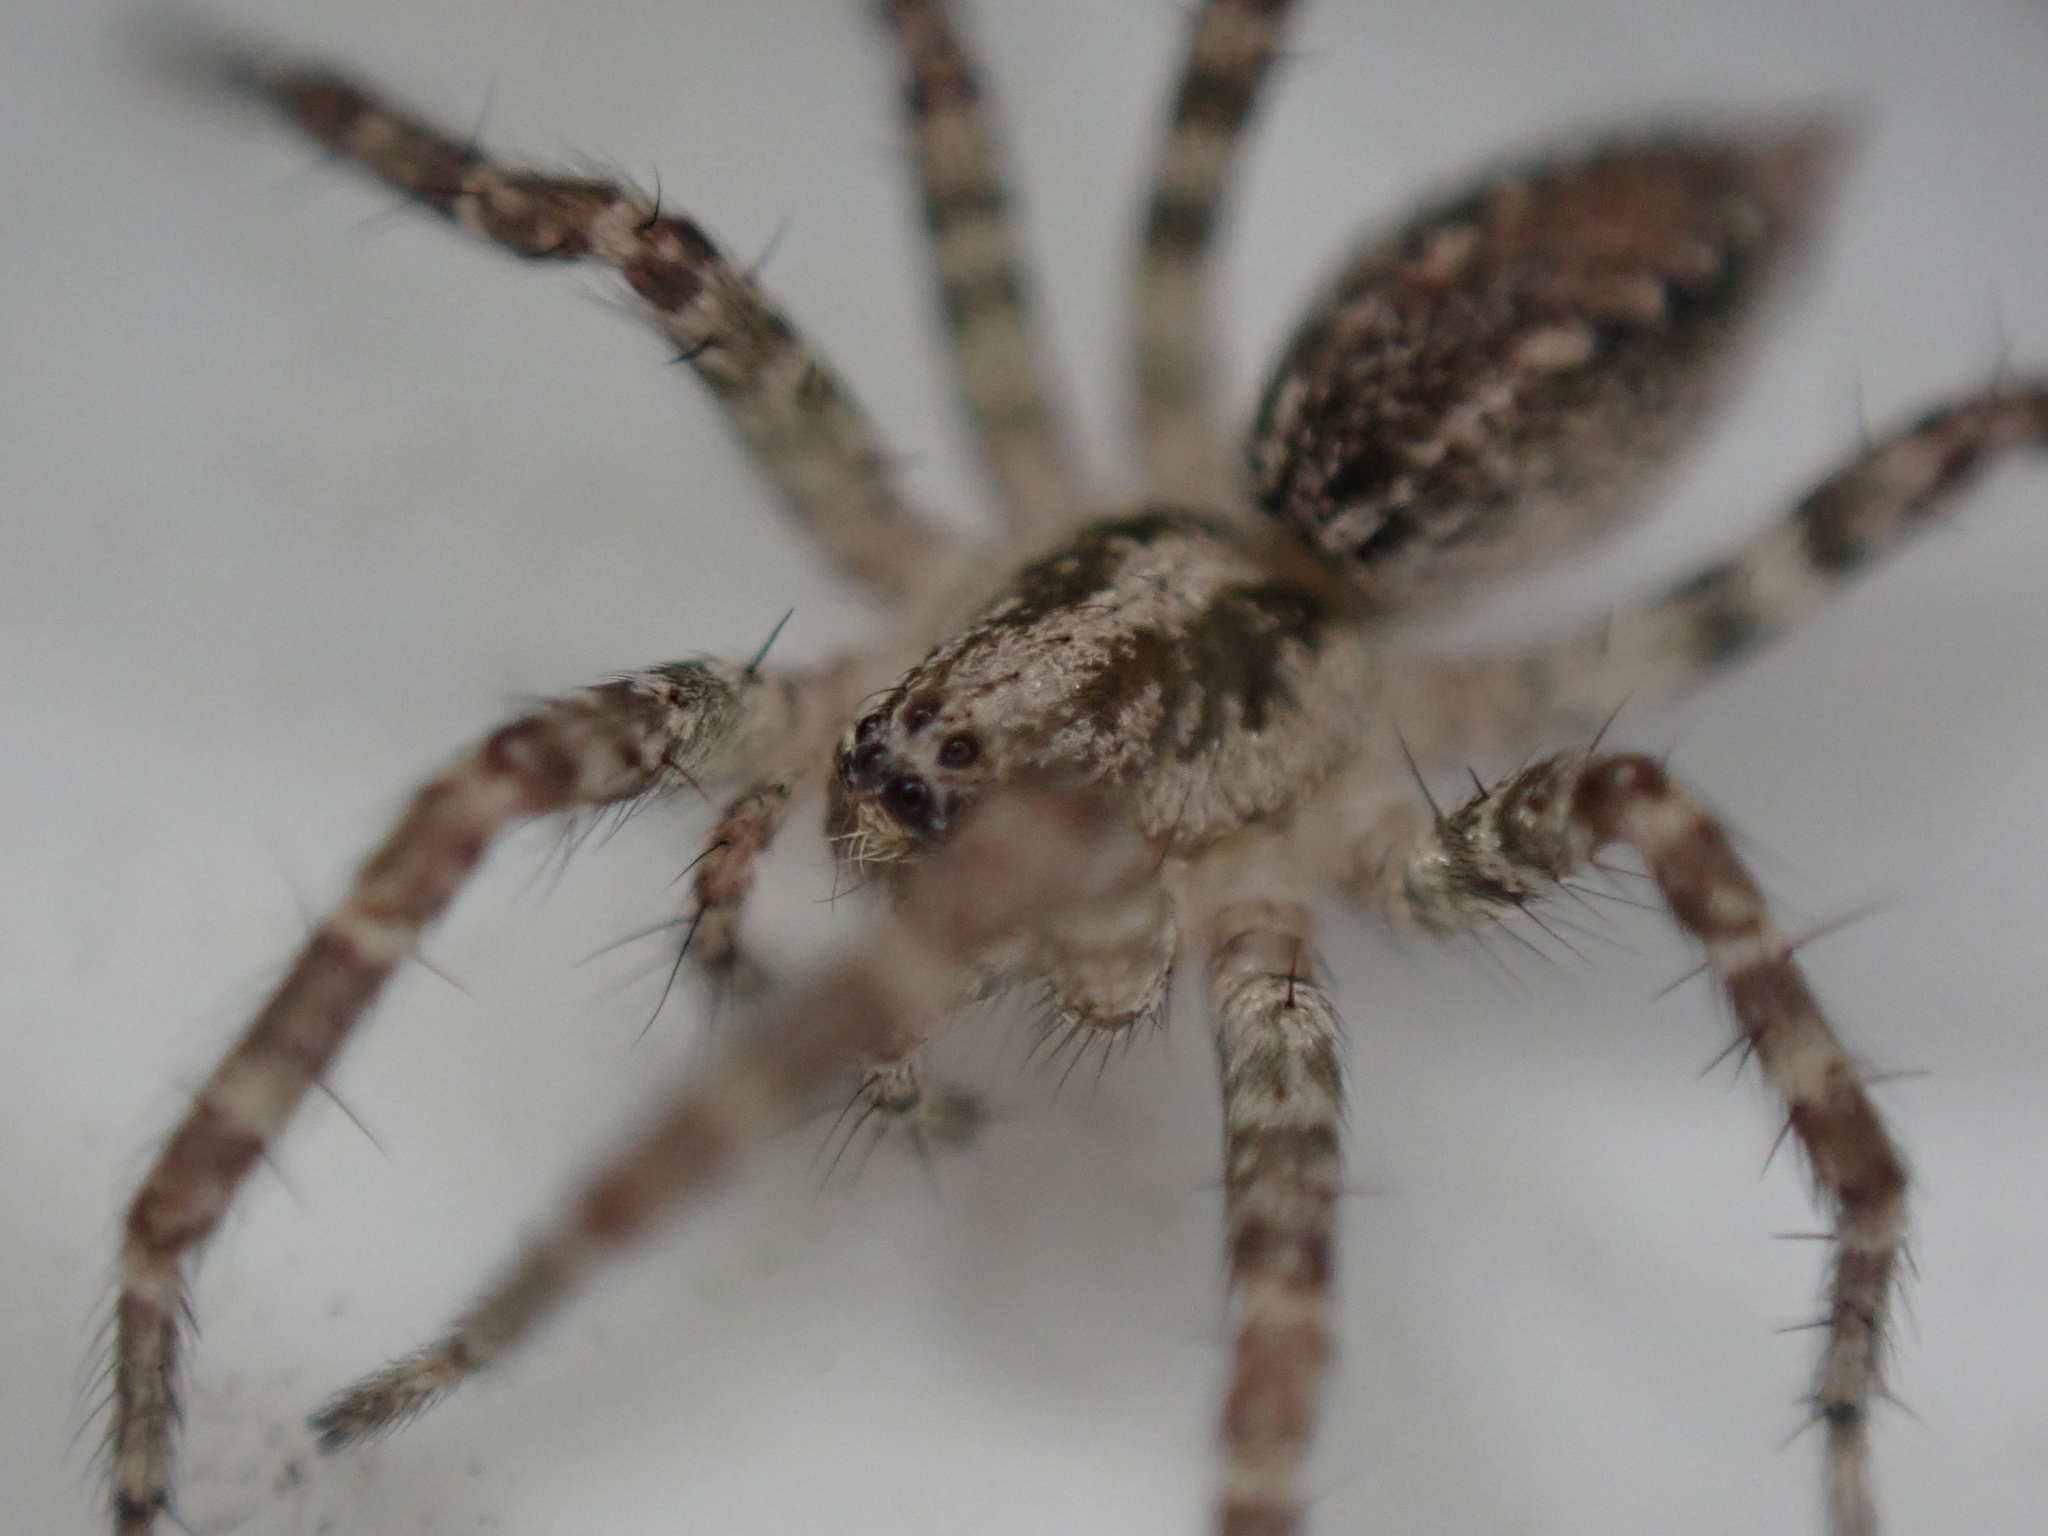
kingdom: Animalia
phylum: Arthropoda
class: Arachnida
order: Araneae
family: Agelenidae
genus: Barronopsis
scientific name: Barronopsis texana
